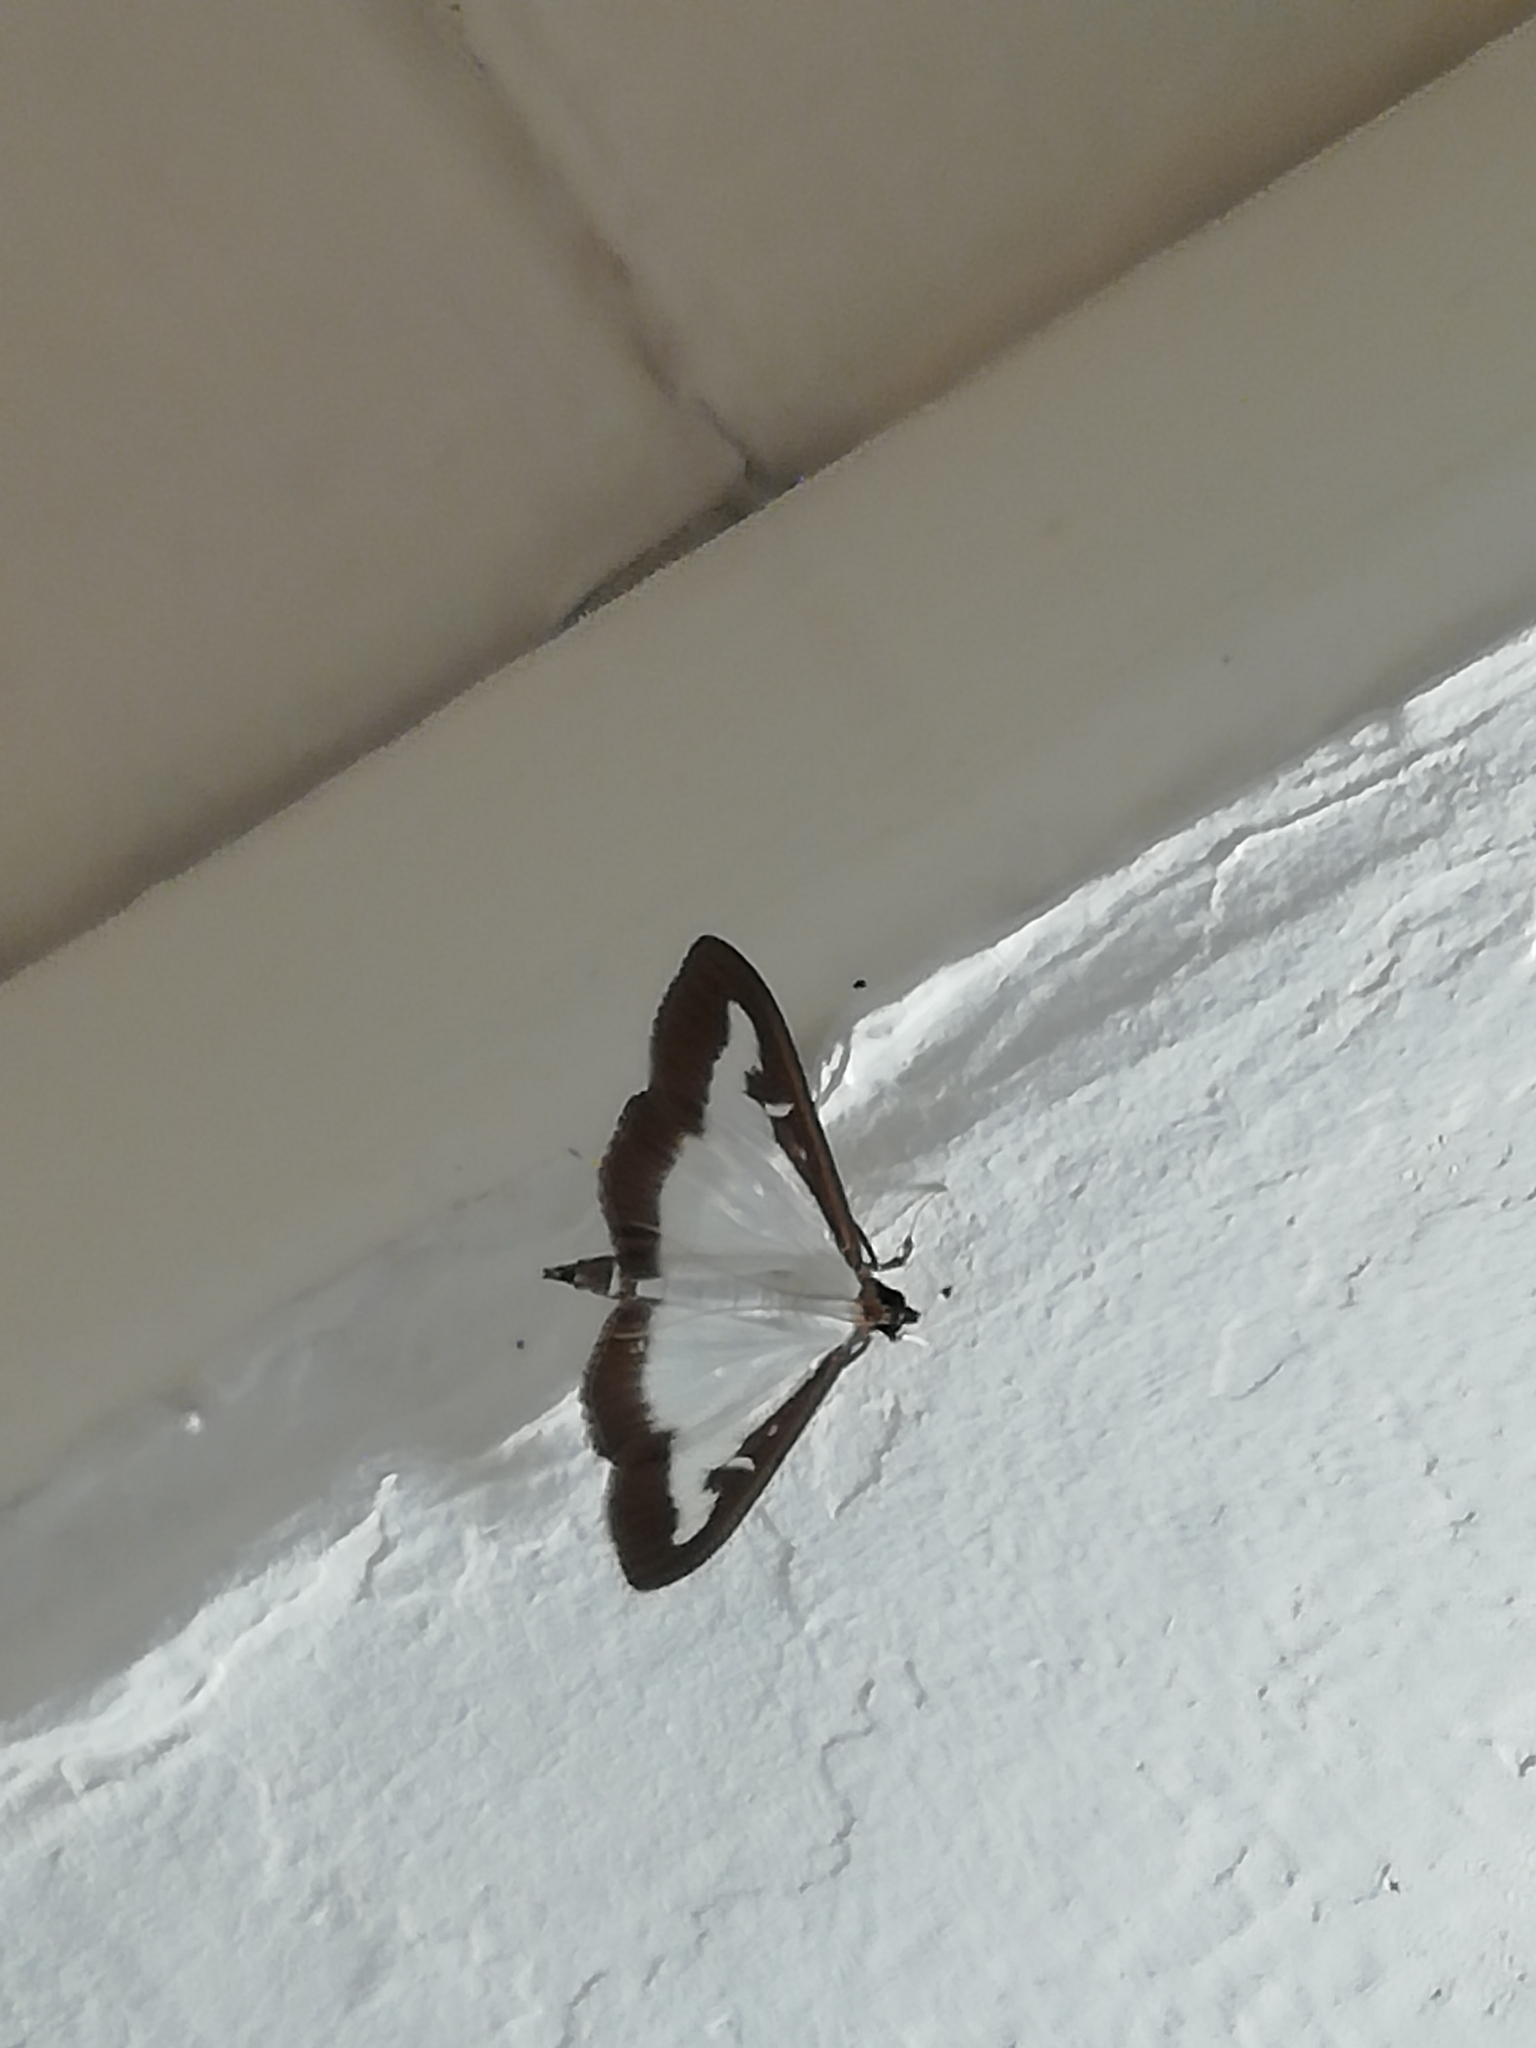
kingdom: Animalia
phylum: Arthropoda
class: Insecta
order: Lepidoptera
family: Crambidae
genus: Cydalima
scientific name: Cydalima perspectalis
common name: Box tree moth
